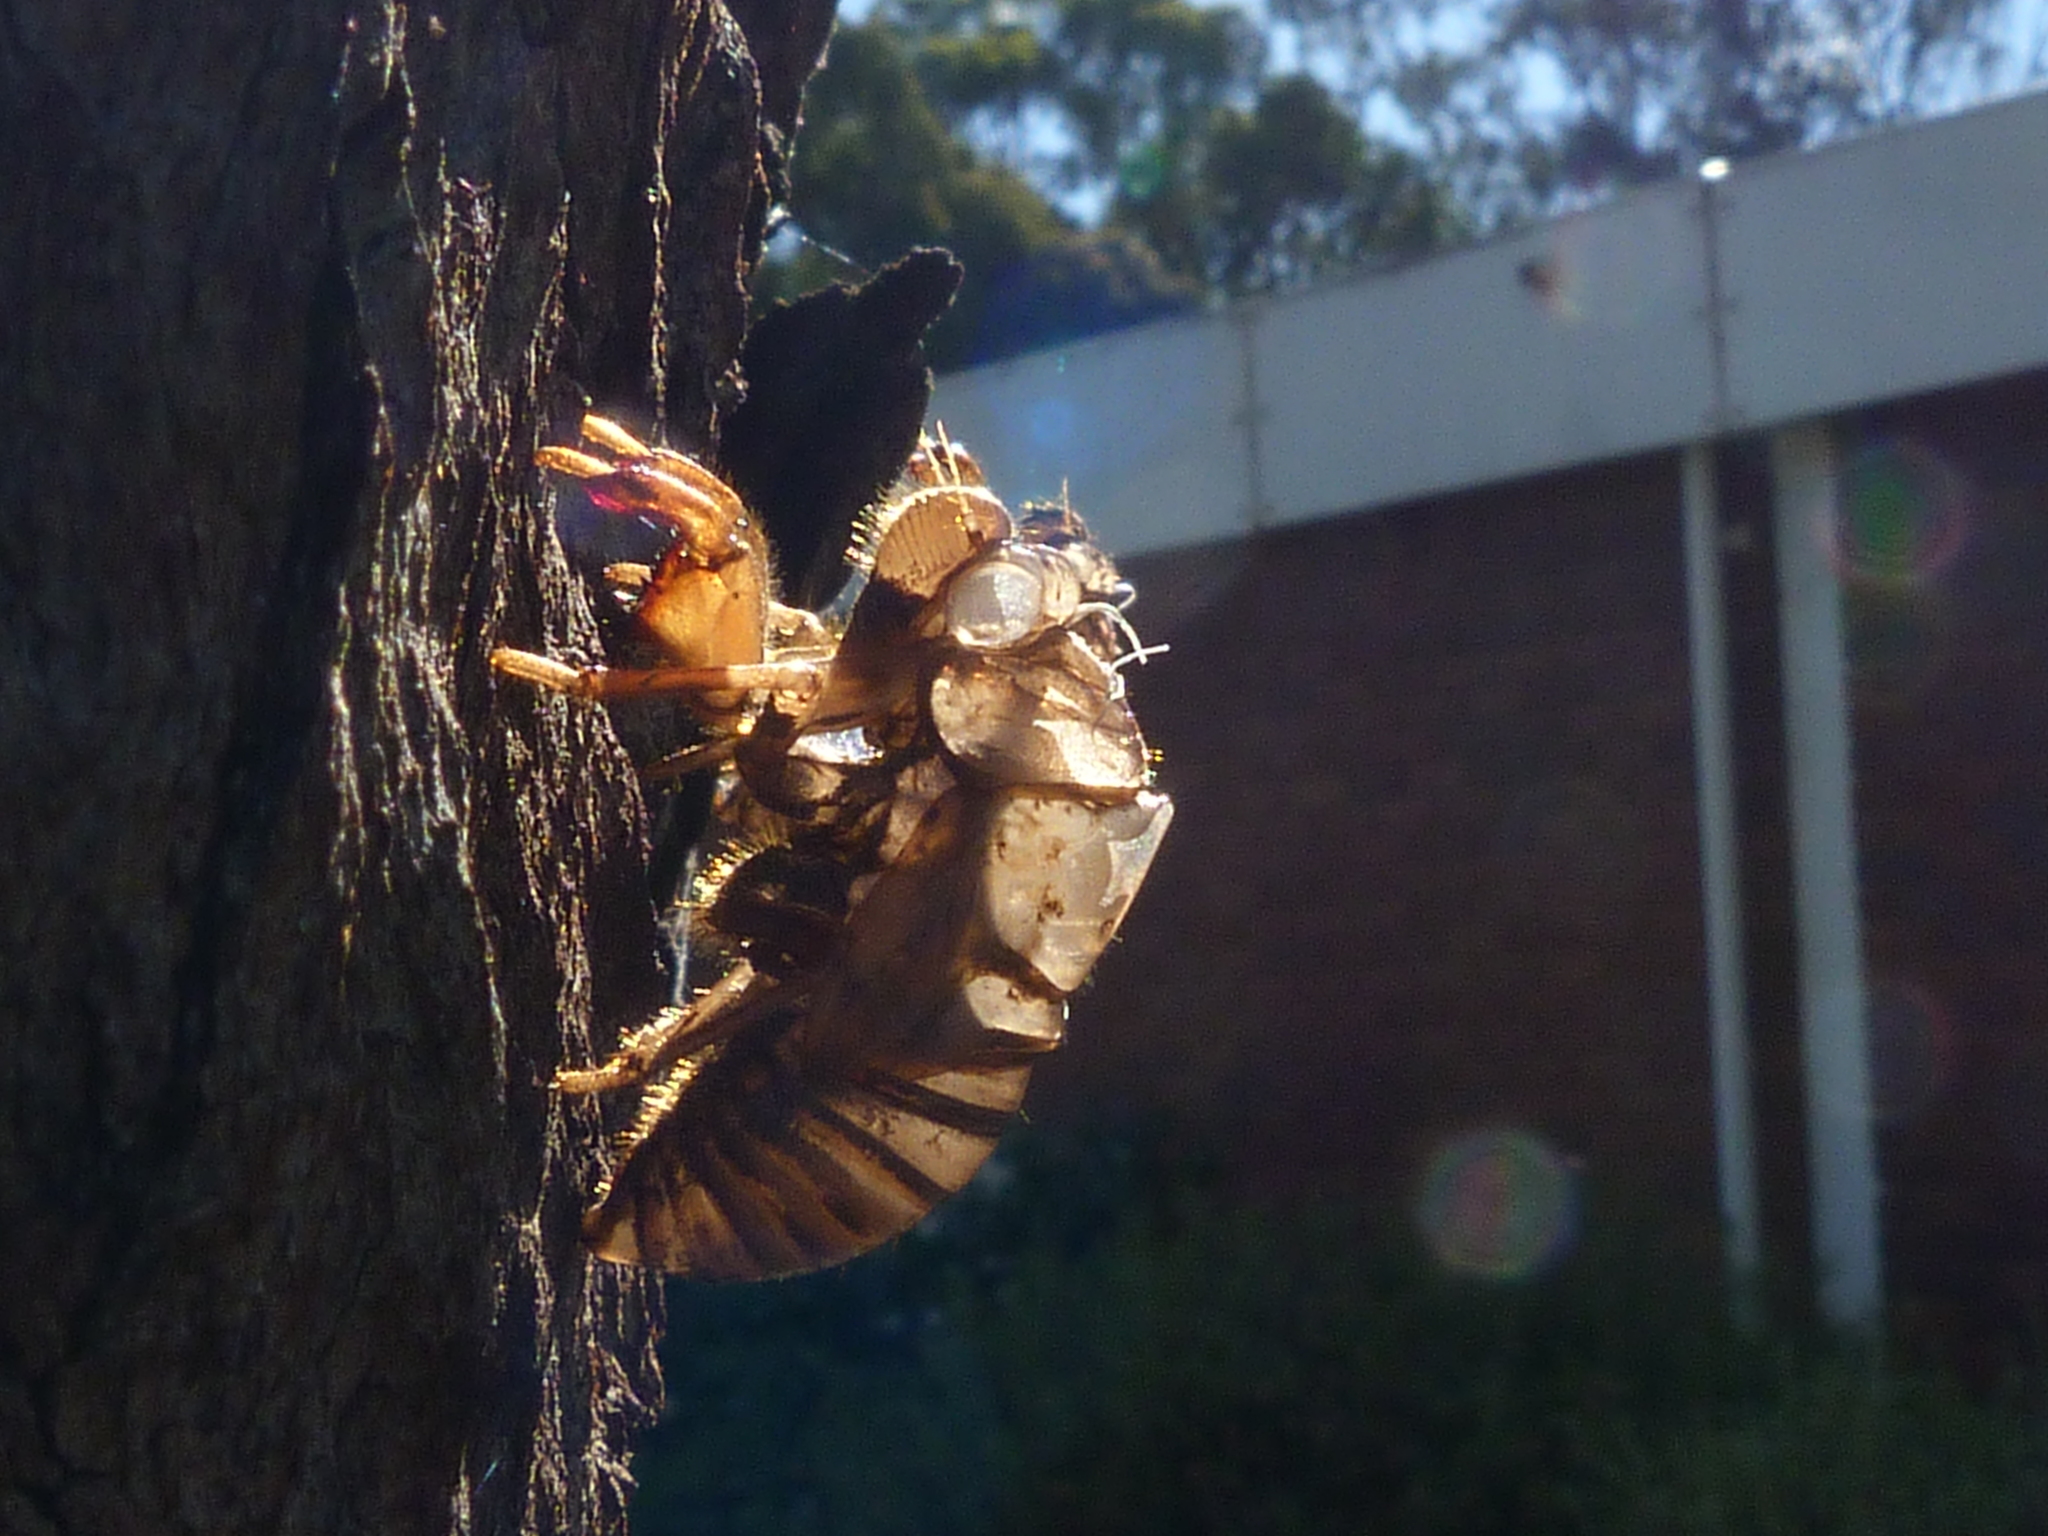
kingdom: Animalia
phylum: Arthropoda
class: Insecta
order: Hemiptera
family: Cicadidae
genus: Psaltoda
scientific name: Psaltoda moerens
